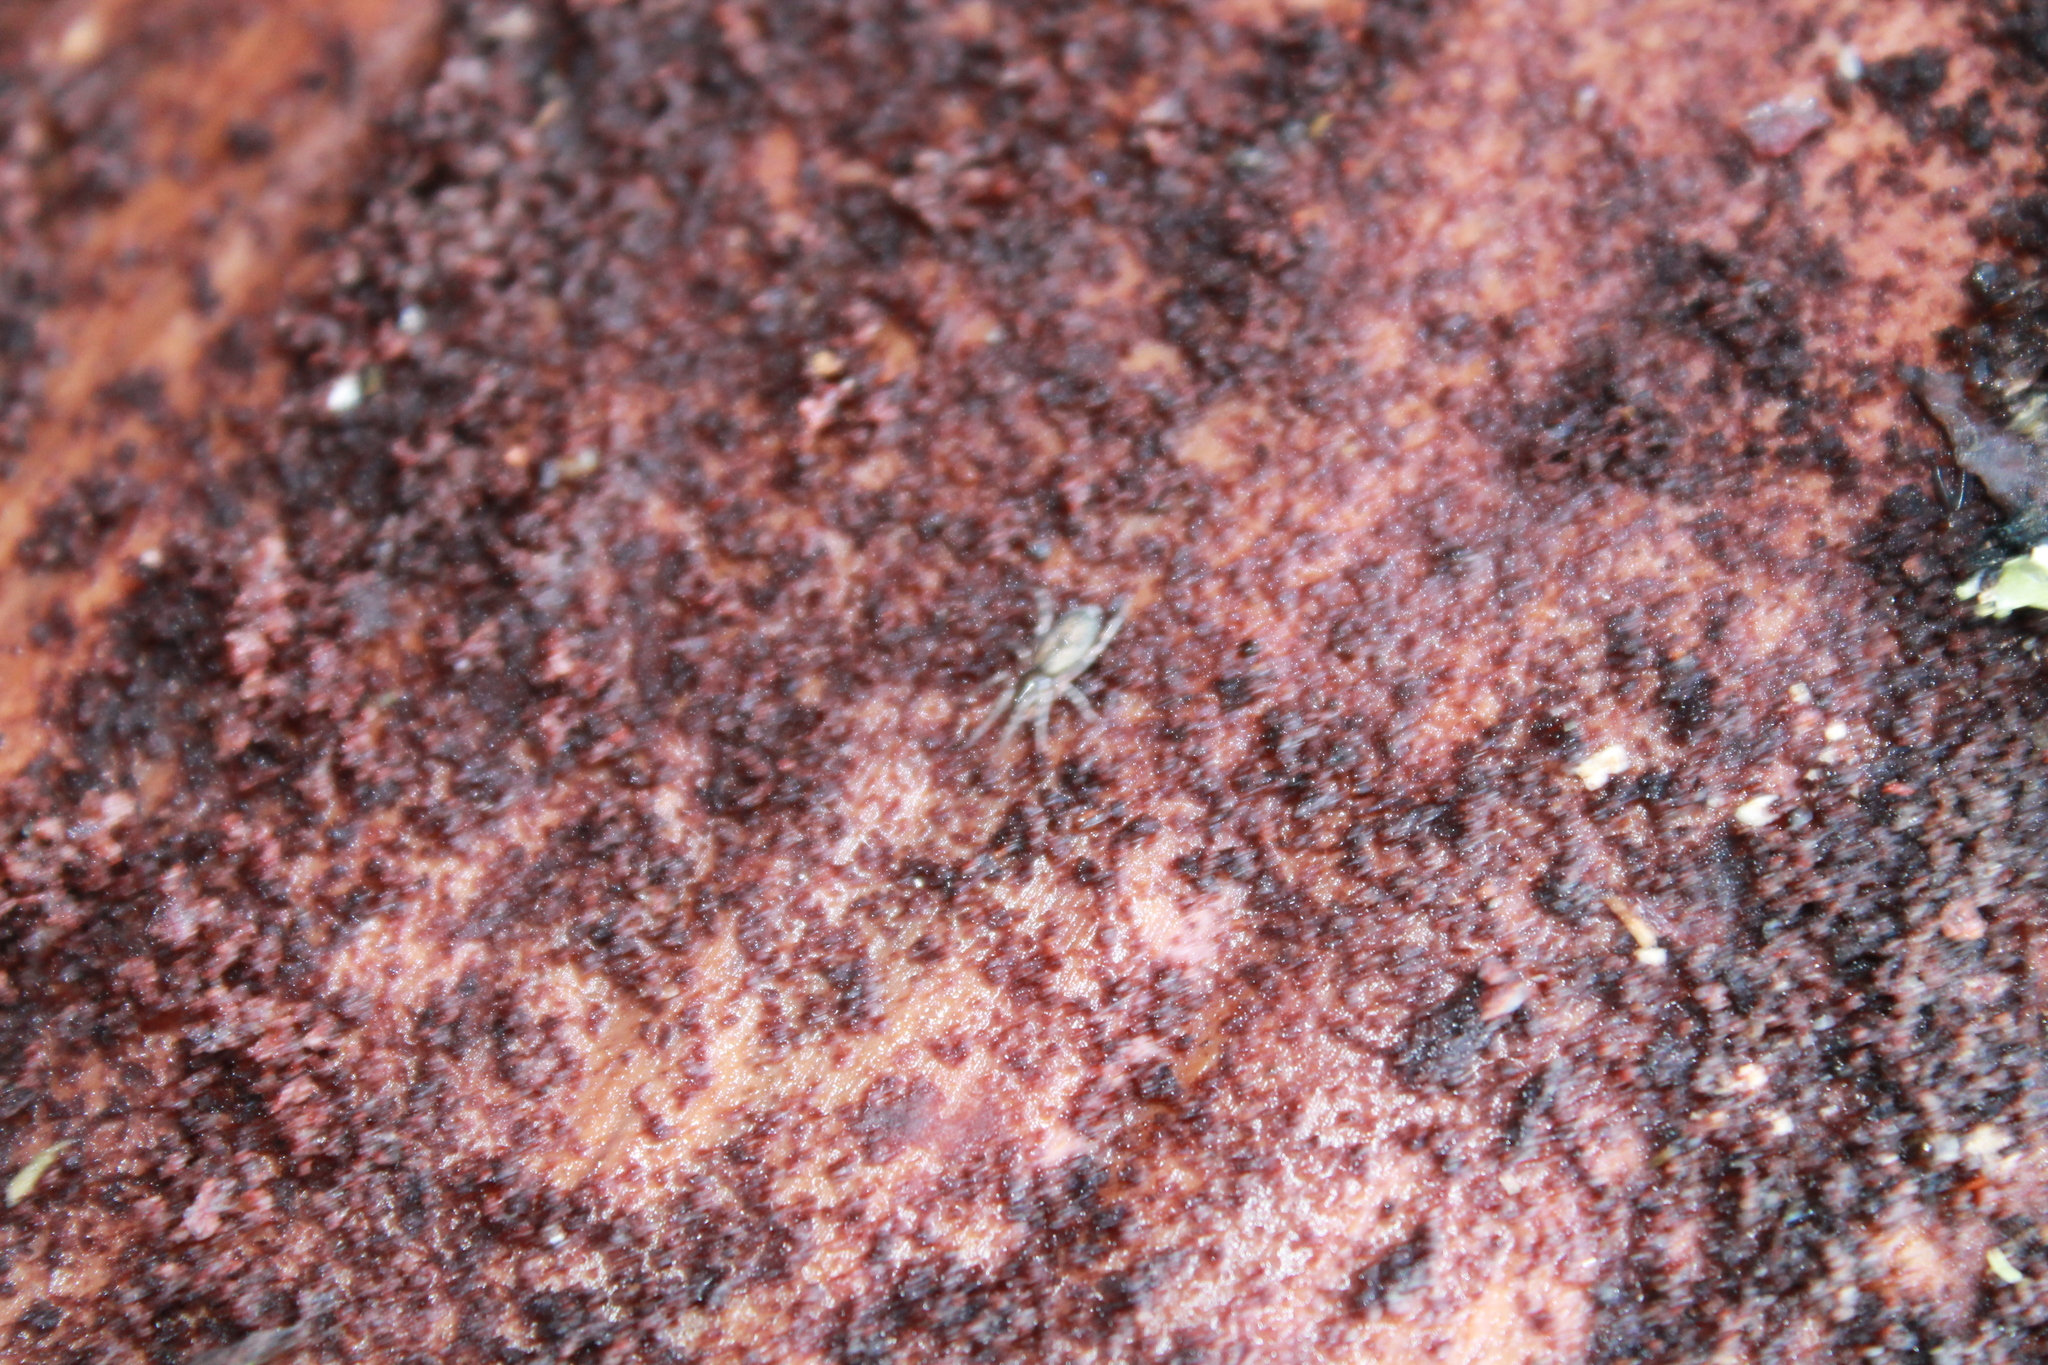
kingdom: Animalia
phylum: Arthropoda
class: Arachnida
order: Araneae
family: Gnaphosidae
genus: Intruda
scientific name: Intruda signata
